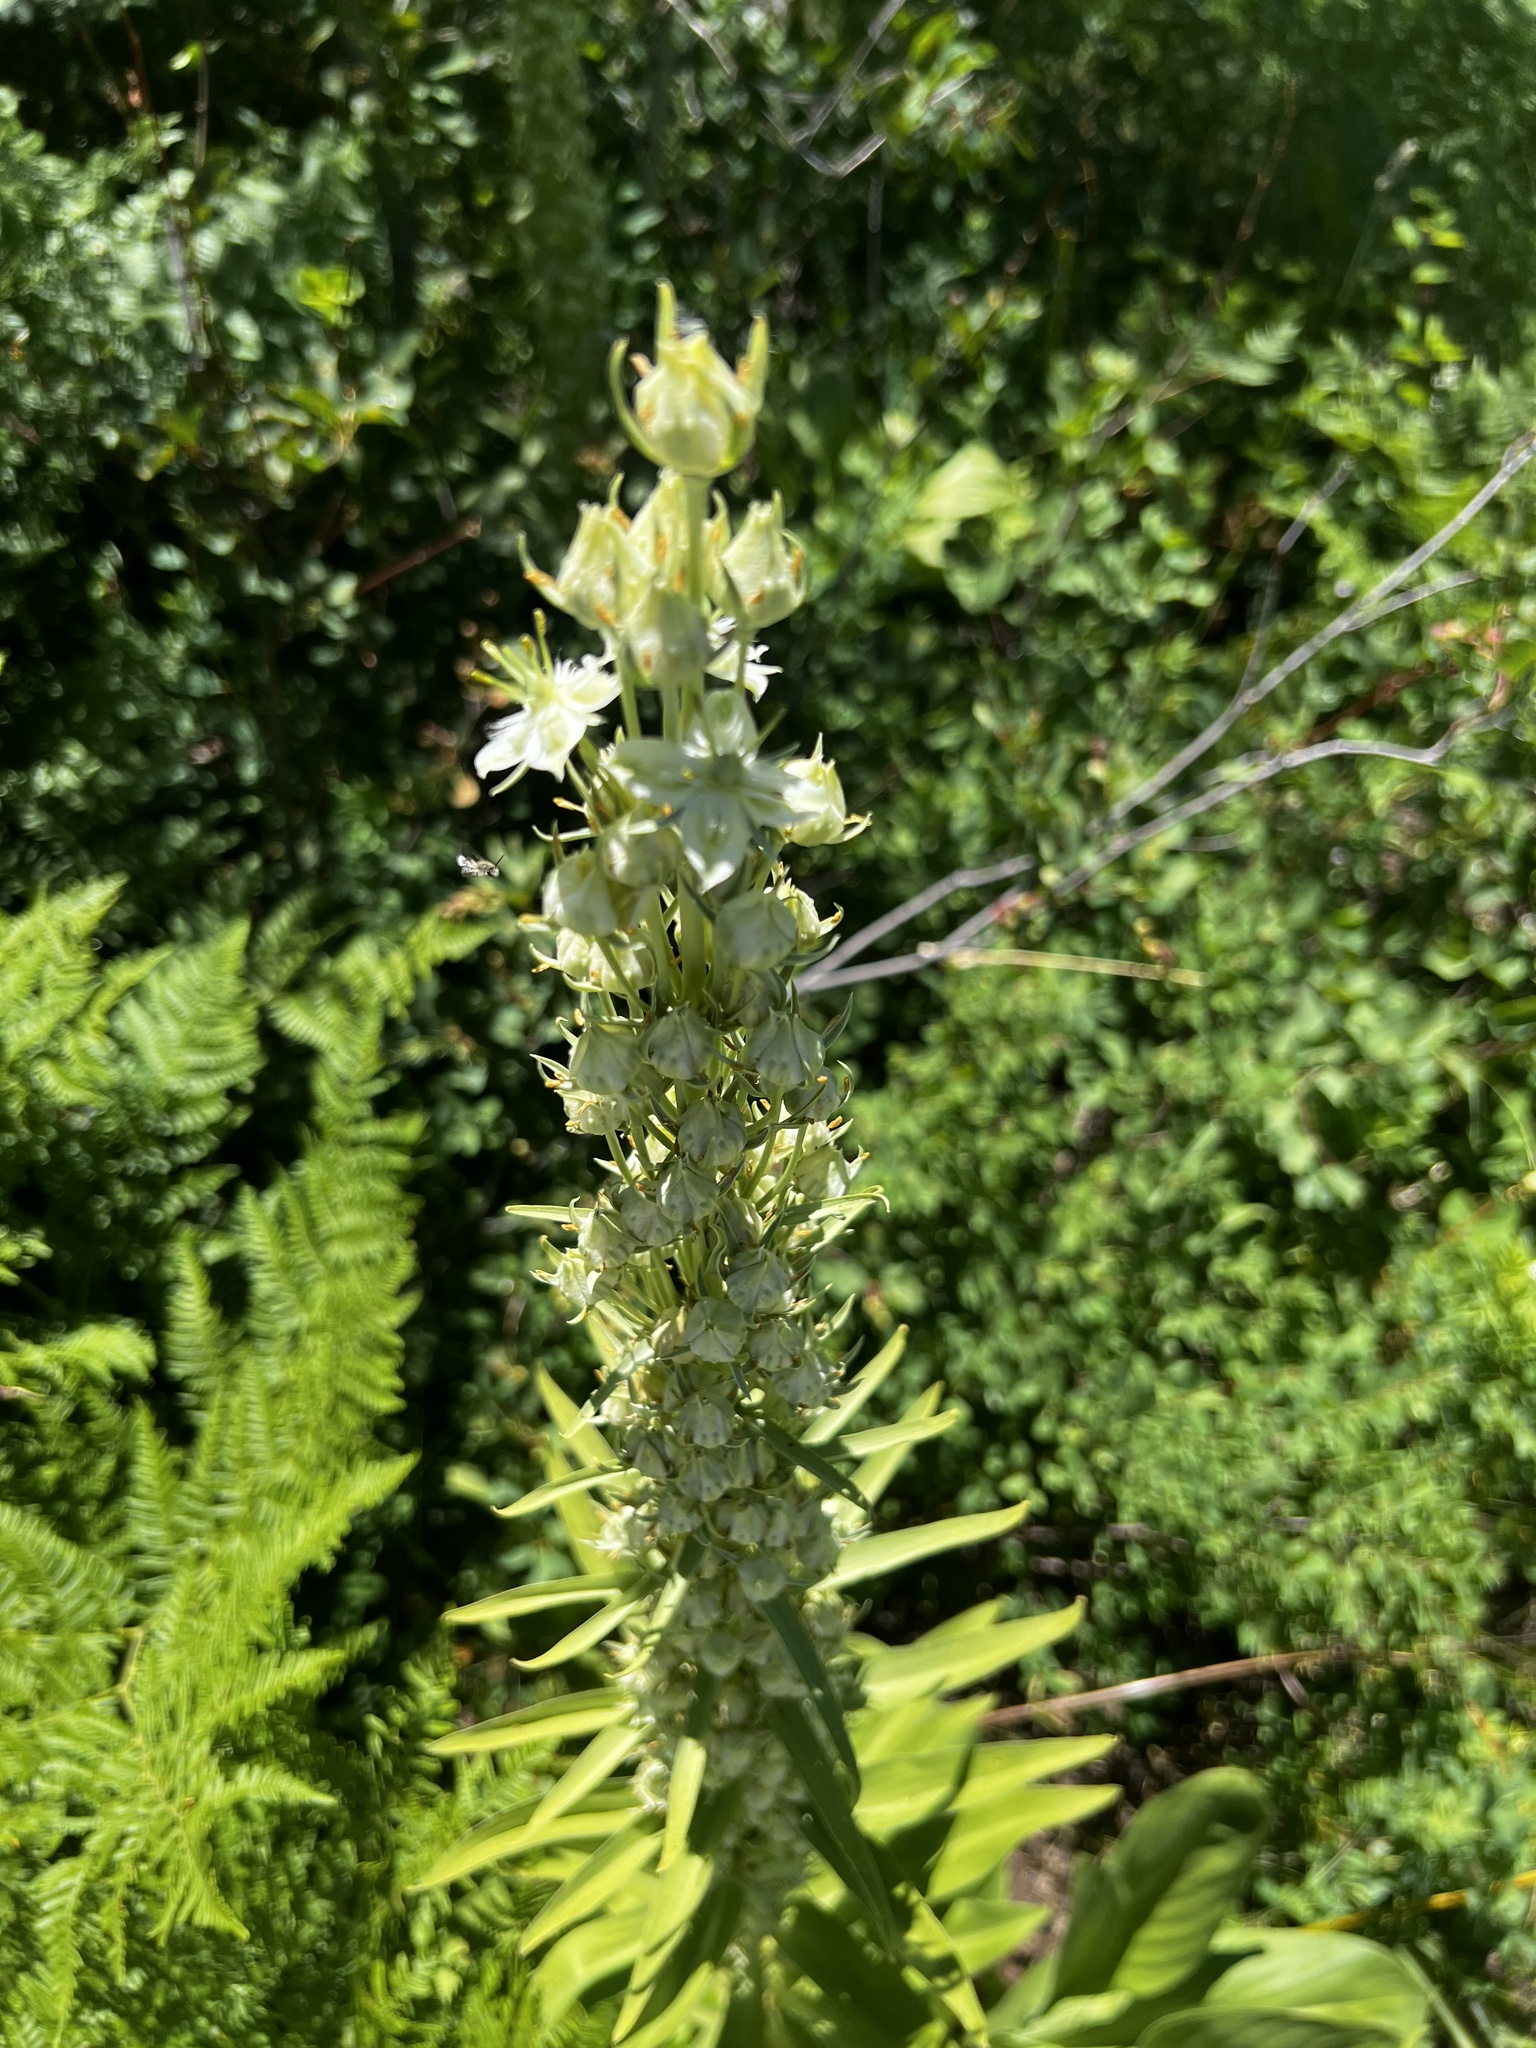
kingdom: Plantae
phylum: Tracheophyta
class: Magnoliopsida
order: Gentianales
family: Gentianaceae
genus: Frasera
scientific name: Frasera speciosa
